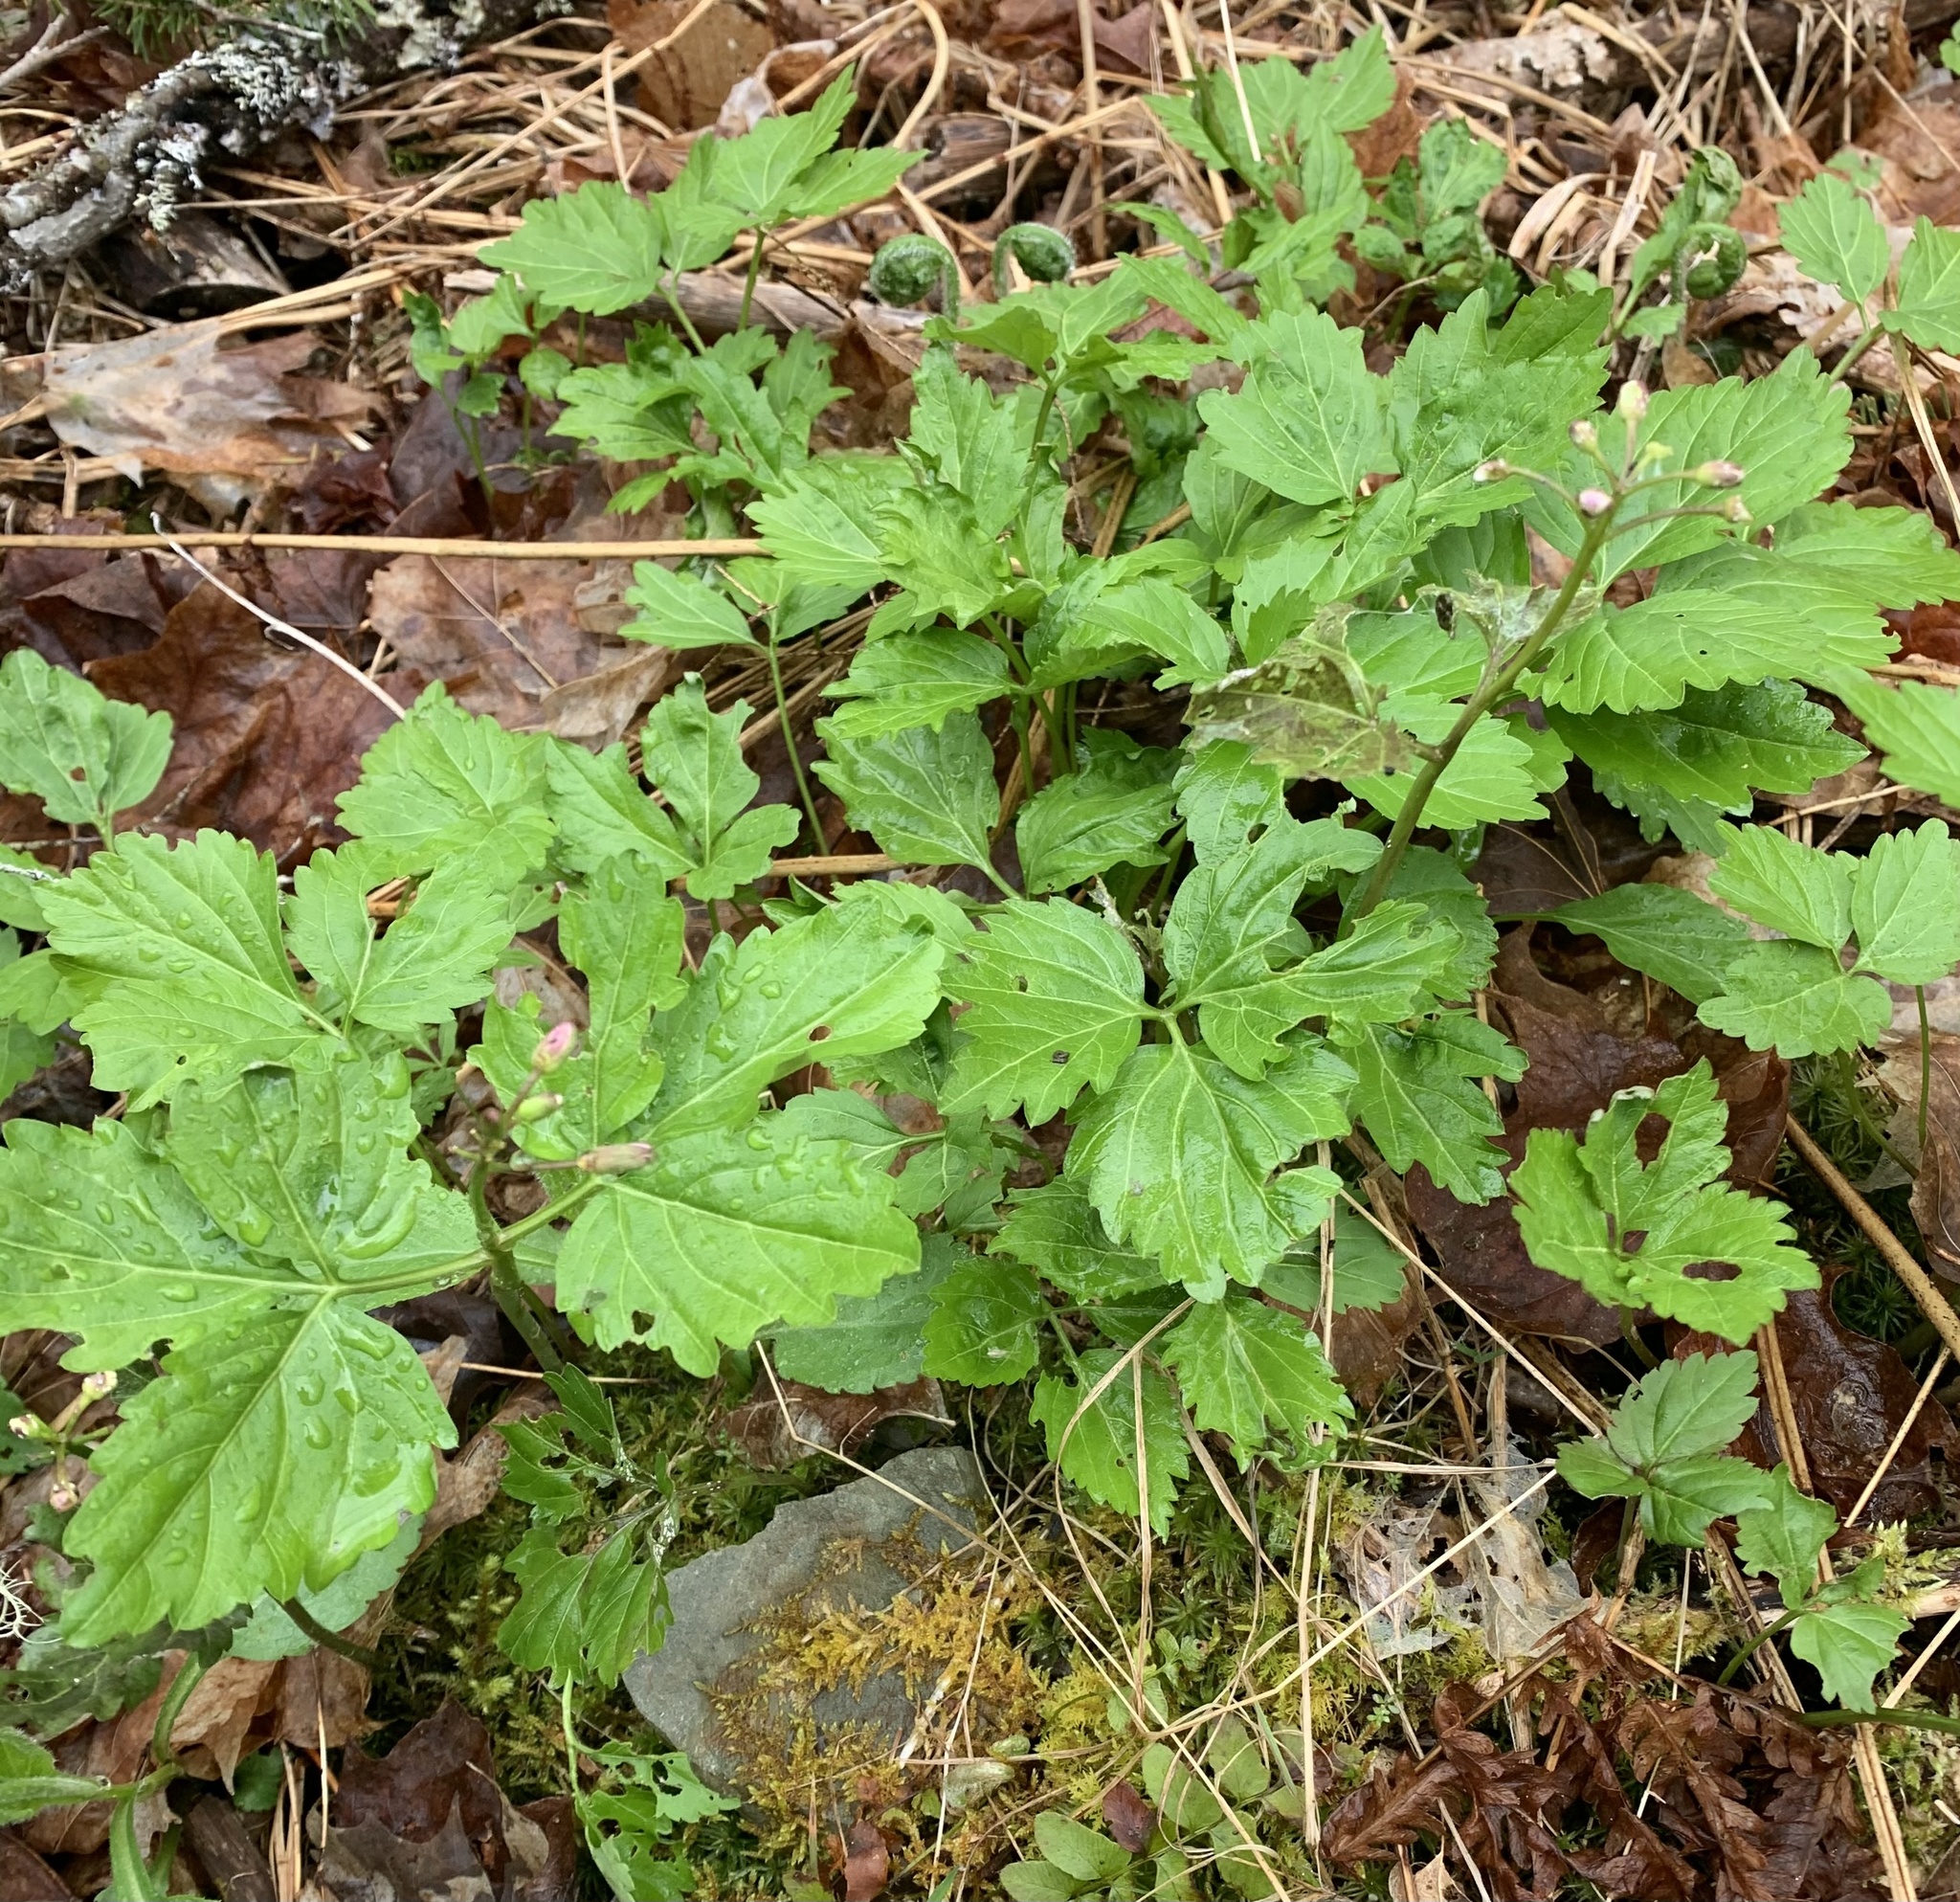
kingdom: Plantae
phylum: Tracheophyta
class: Magnoliopsida
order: Brassicales
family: Brassicaceae
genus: Cardamine
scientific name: Cardamine diphylla
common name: Broad-leaved toothwort
